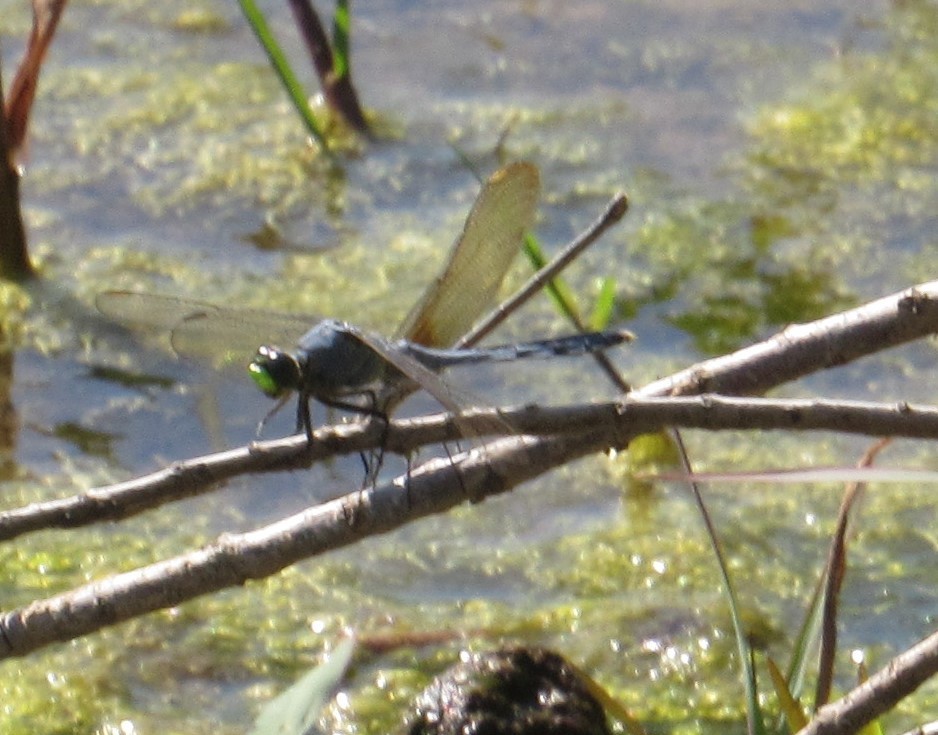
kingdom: Animalia
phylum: Arthropoda
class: Insecta
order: Odonata
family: Libellulidae
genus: Erythemis
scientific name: Erythemis simplicicollis
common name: Eastern pondhawk
